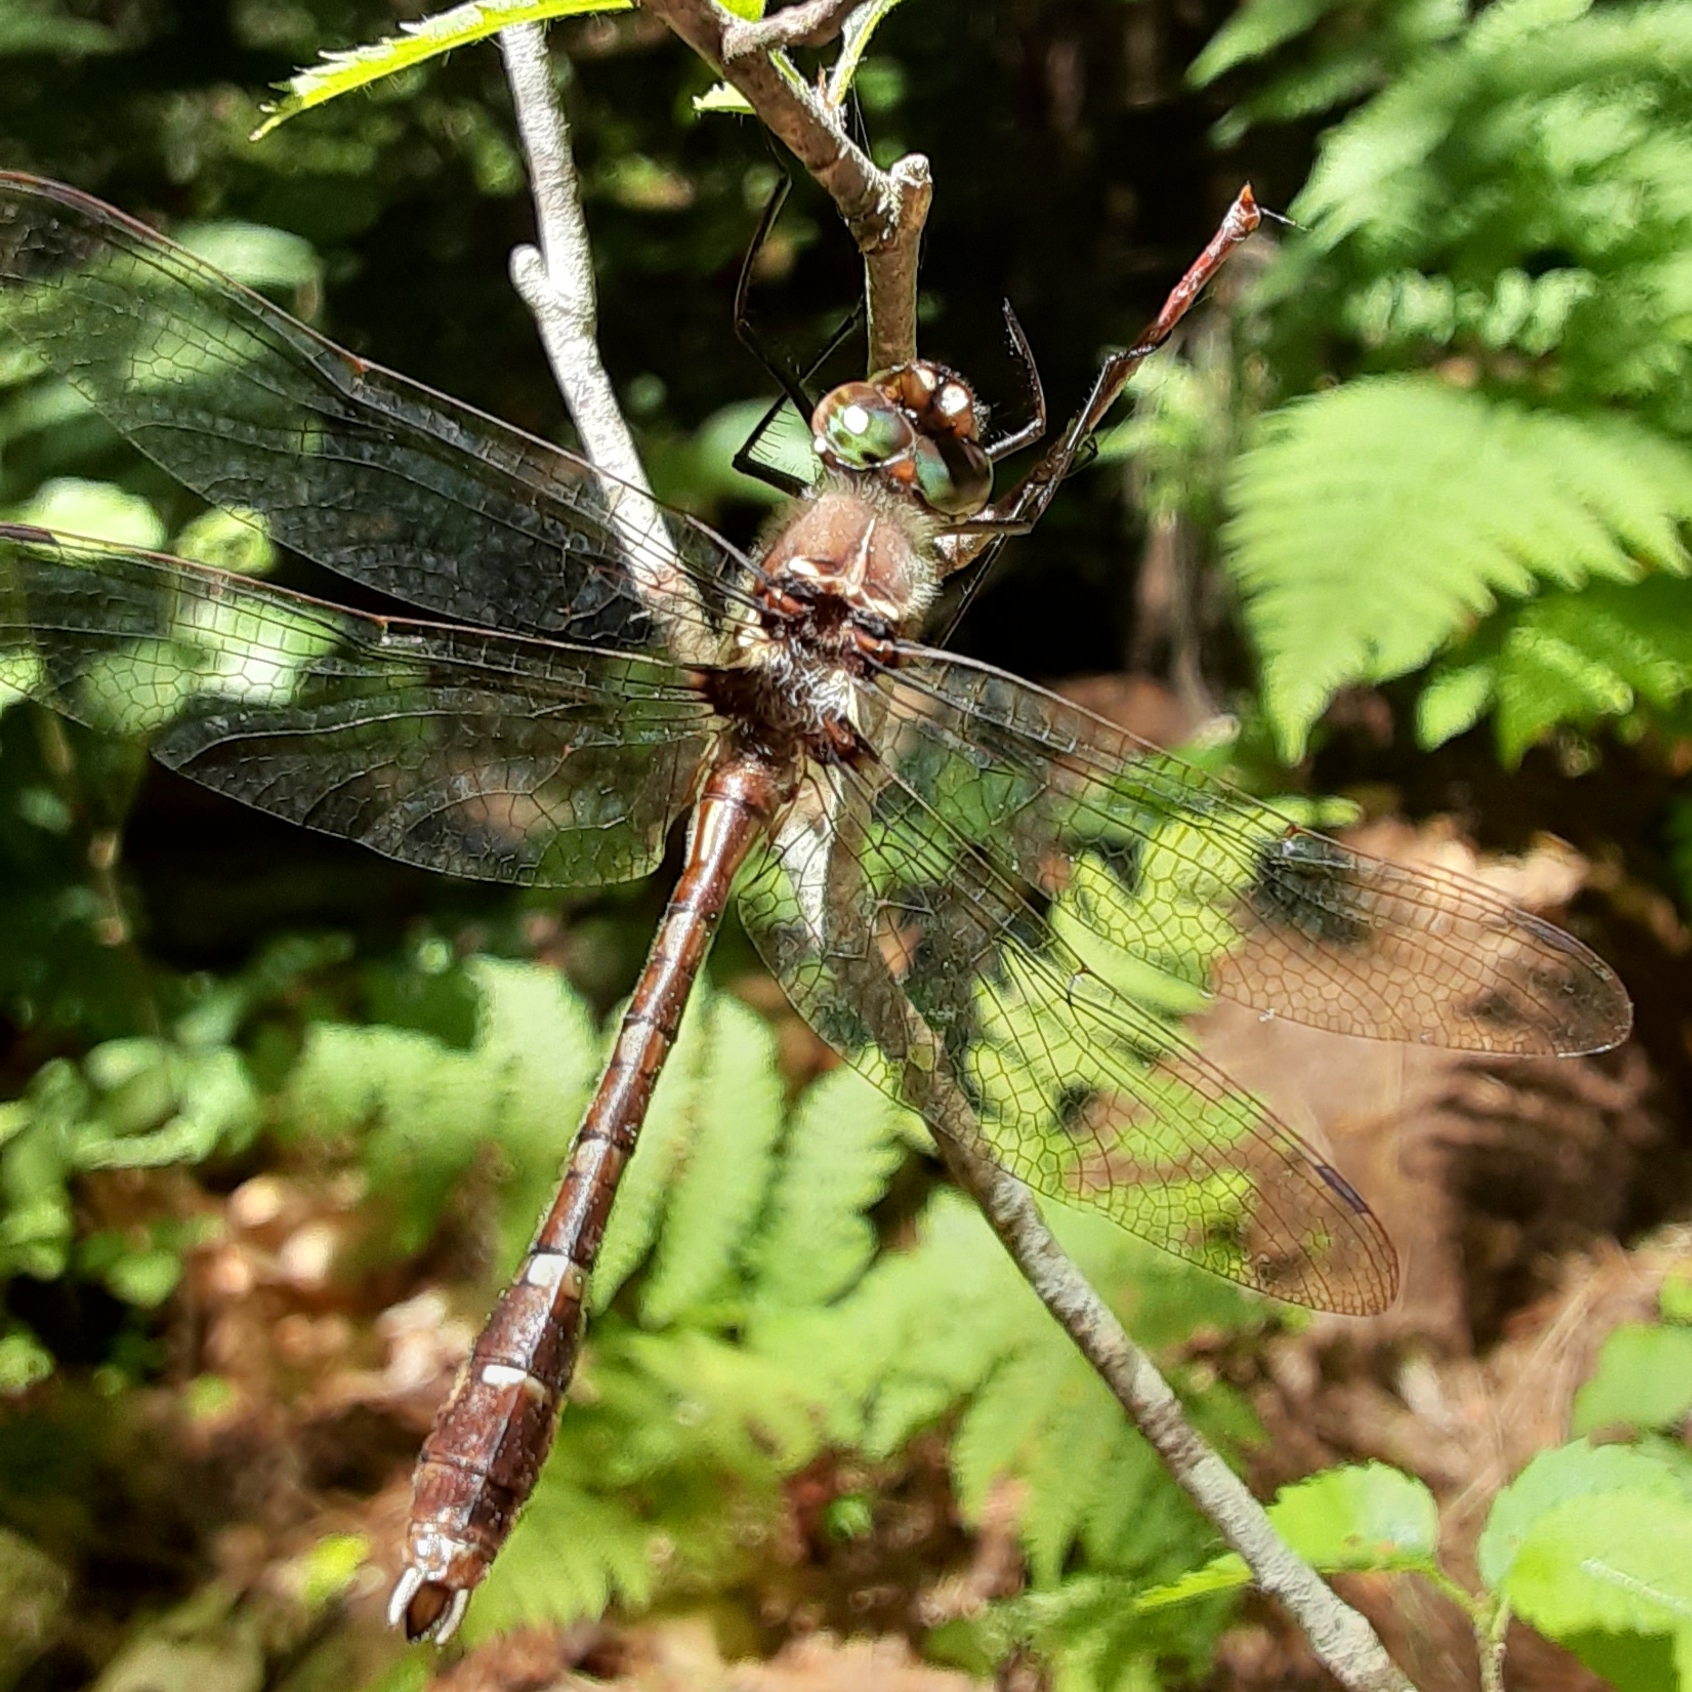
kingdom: Animalia
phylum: Arthropoda
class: Insecta
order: Odonata
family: Macromiidae
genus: Didymops
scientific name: Didymops transversa
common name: Stream cruiser
